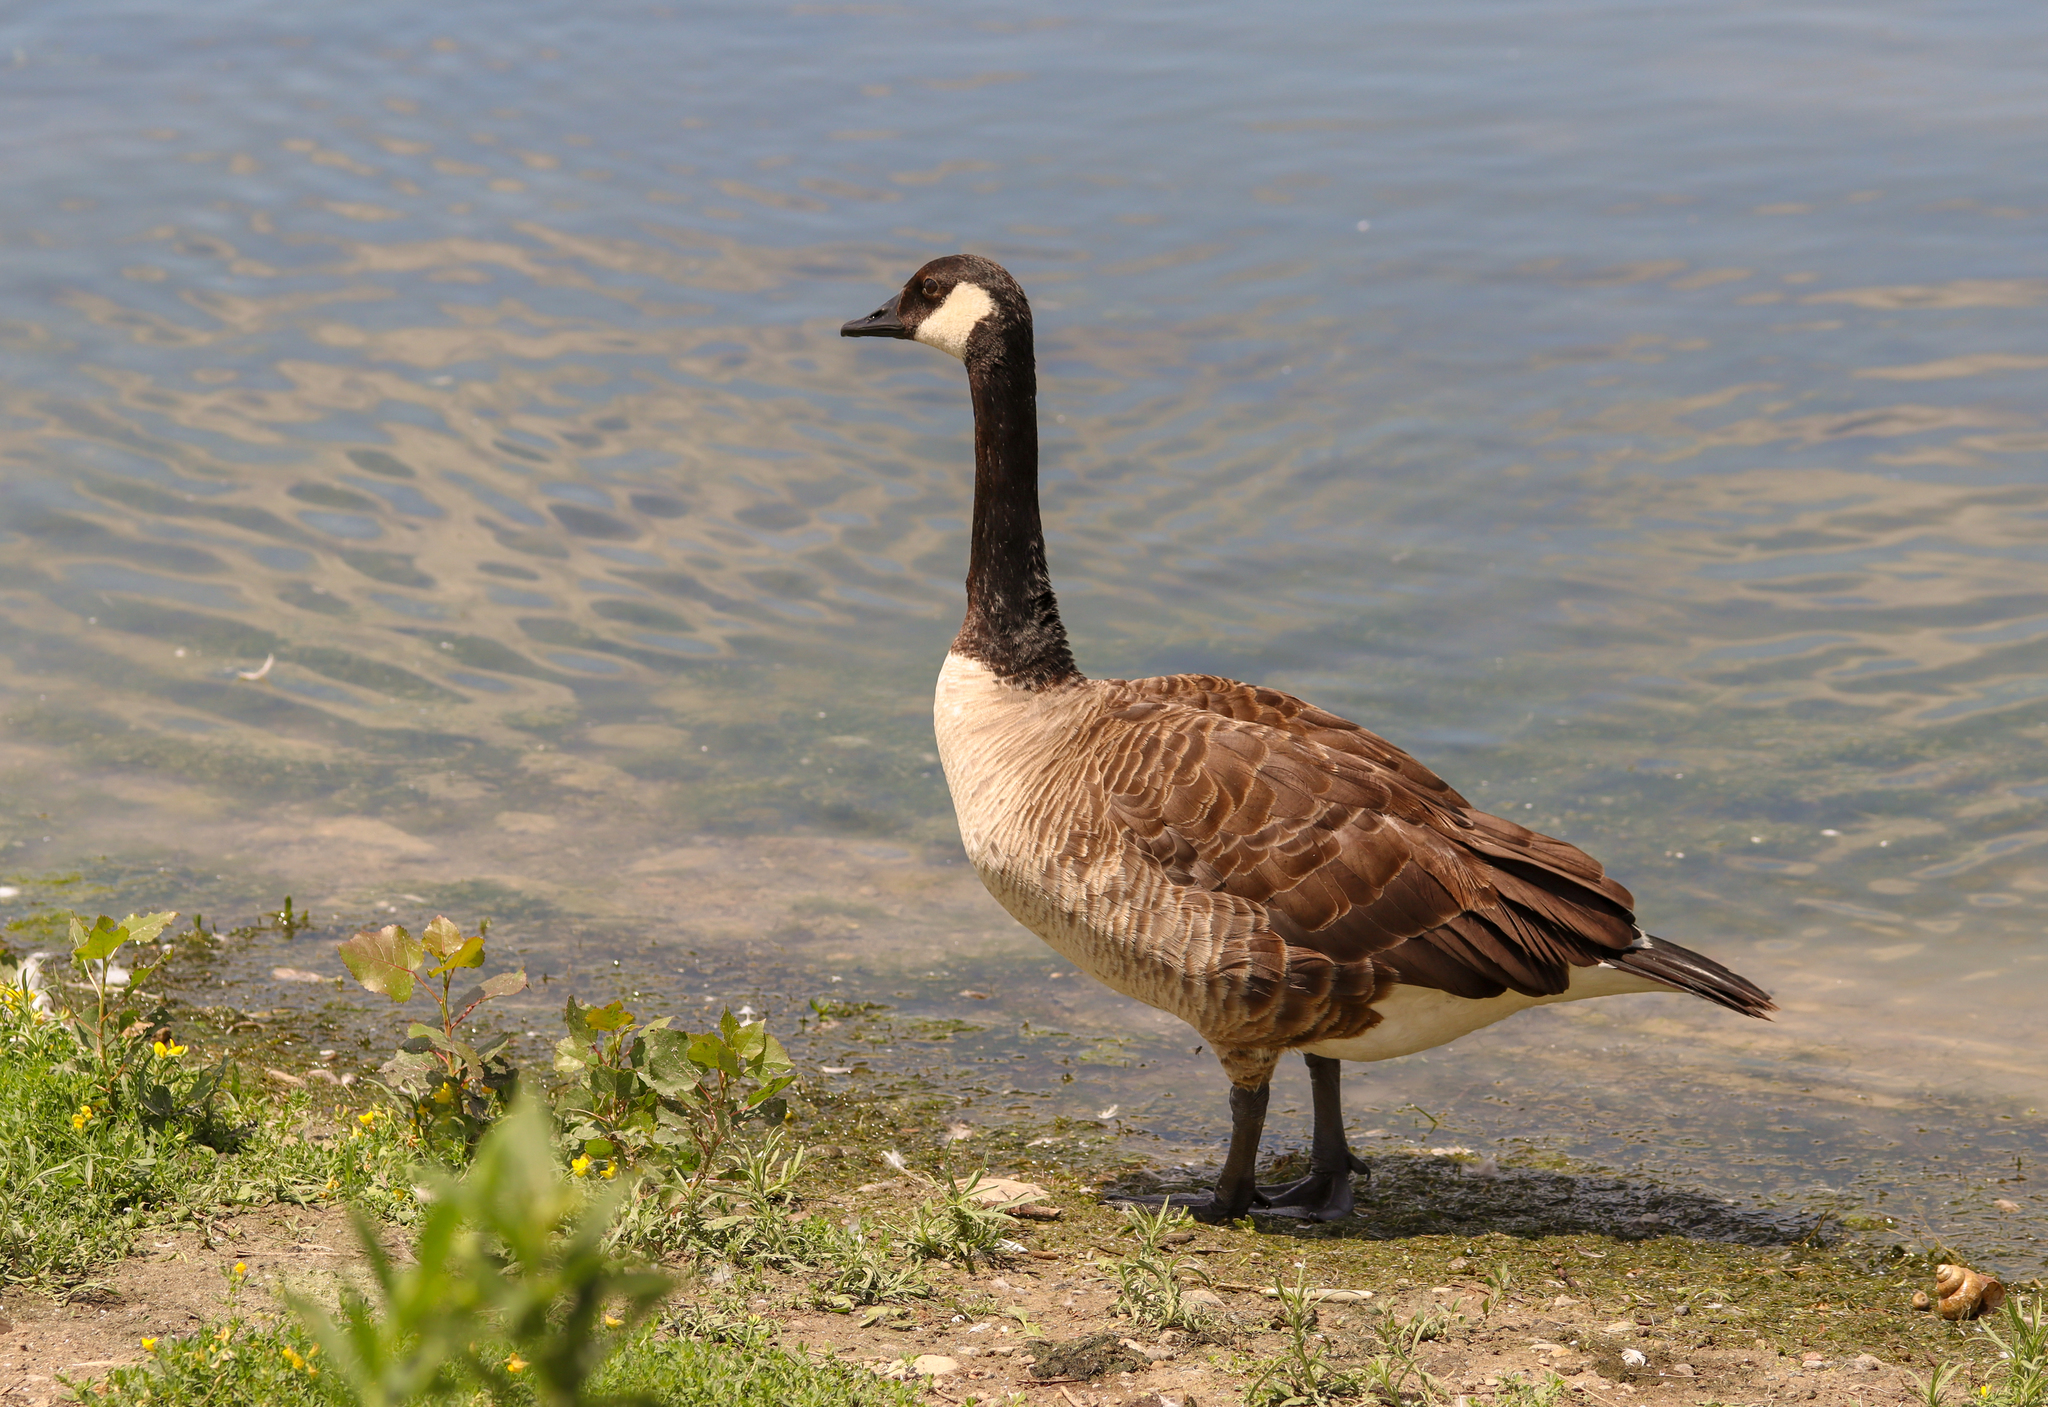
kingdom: Animalia
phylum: Chordata
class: Aves
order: Anseriformes
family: Anatidae
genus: Branta
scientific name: Branta canadensis
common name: Canada goose
